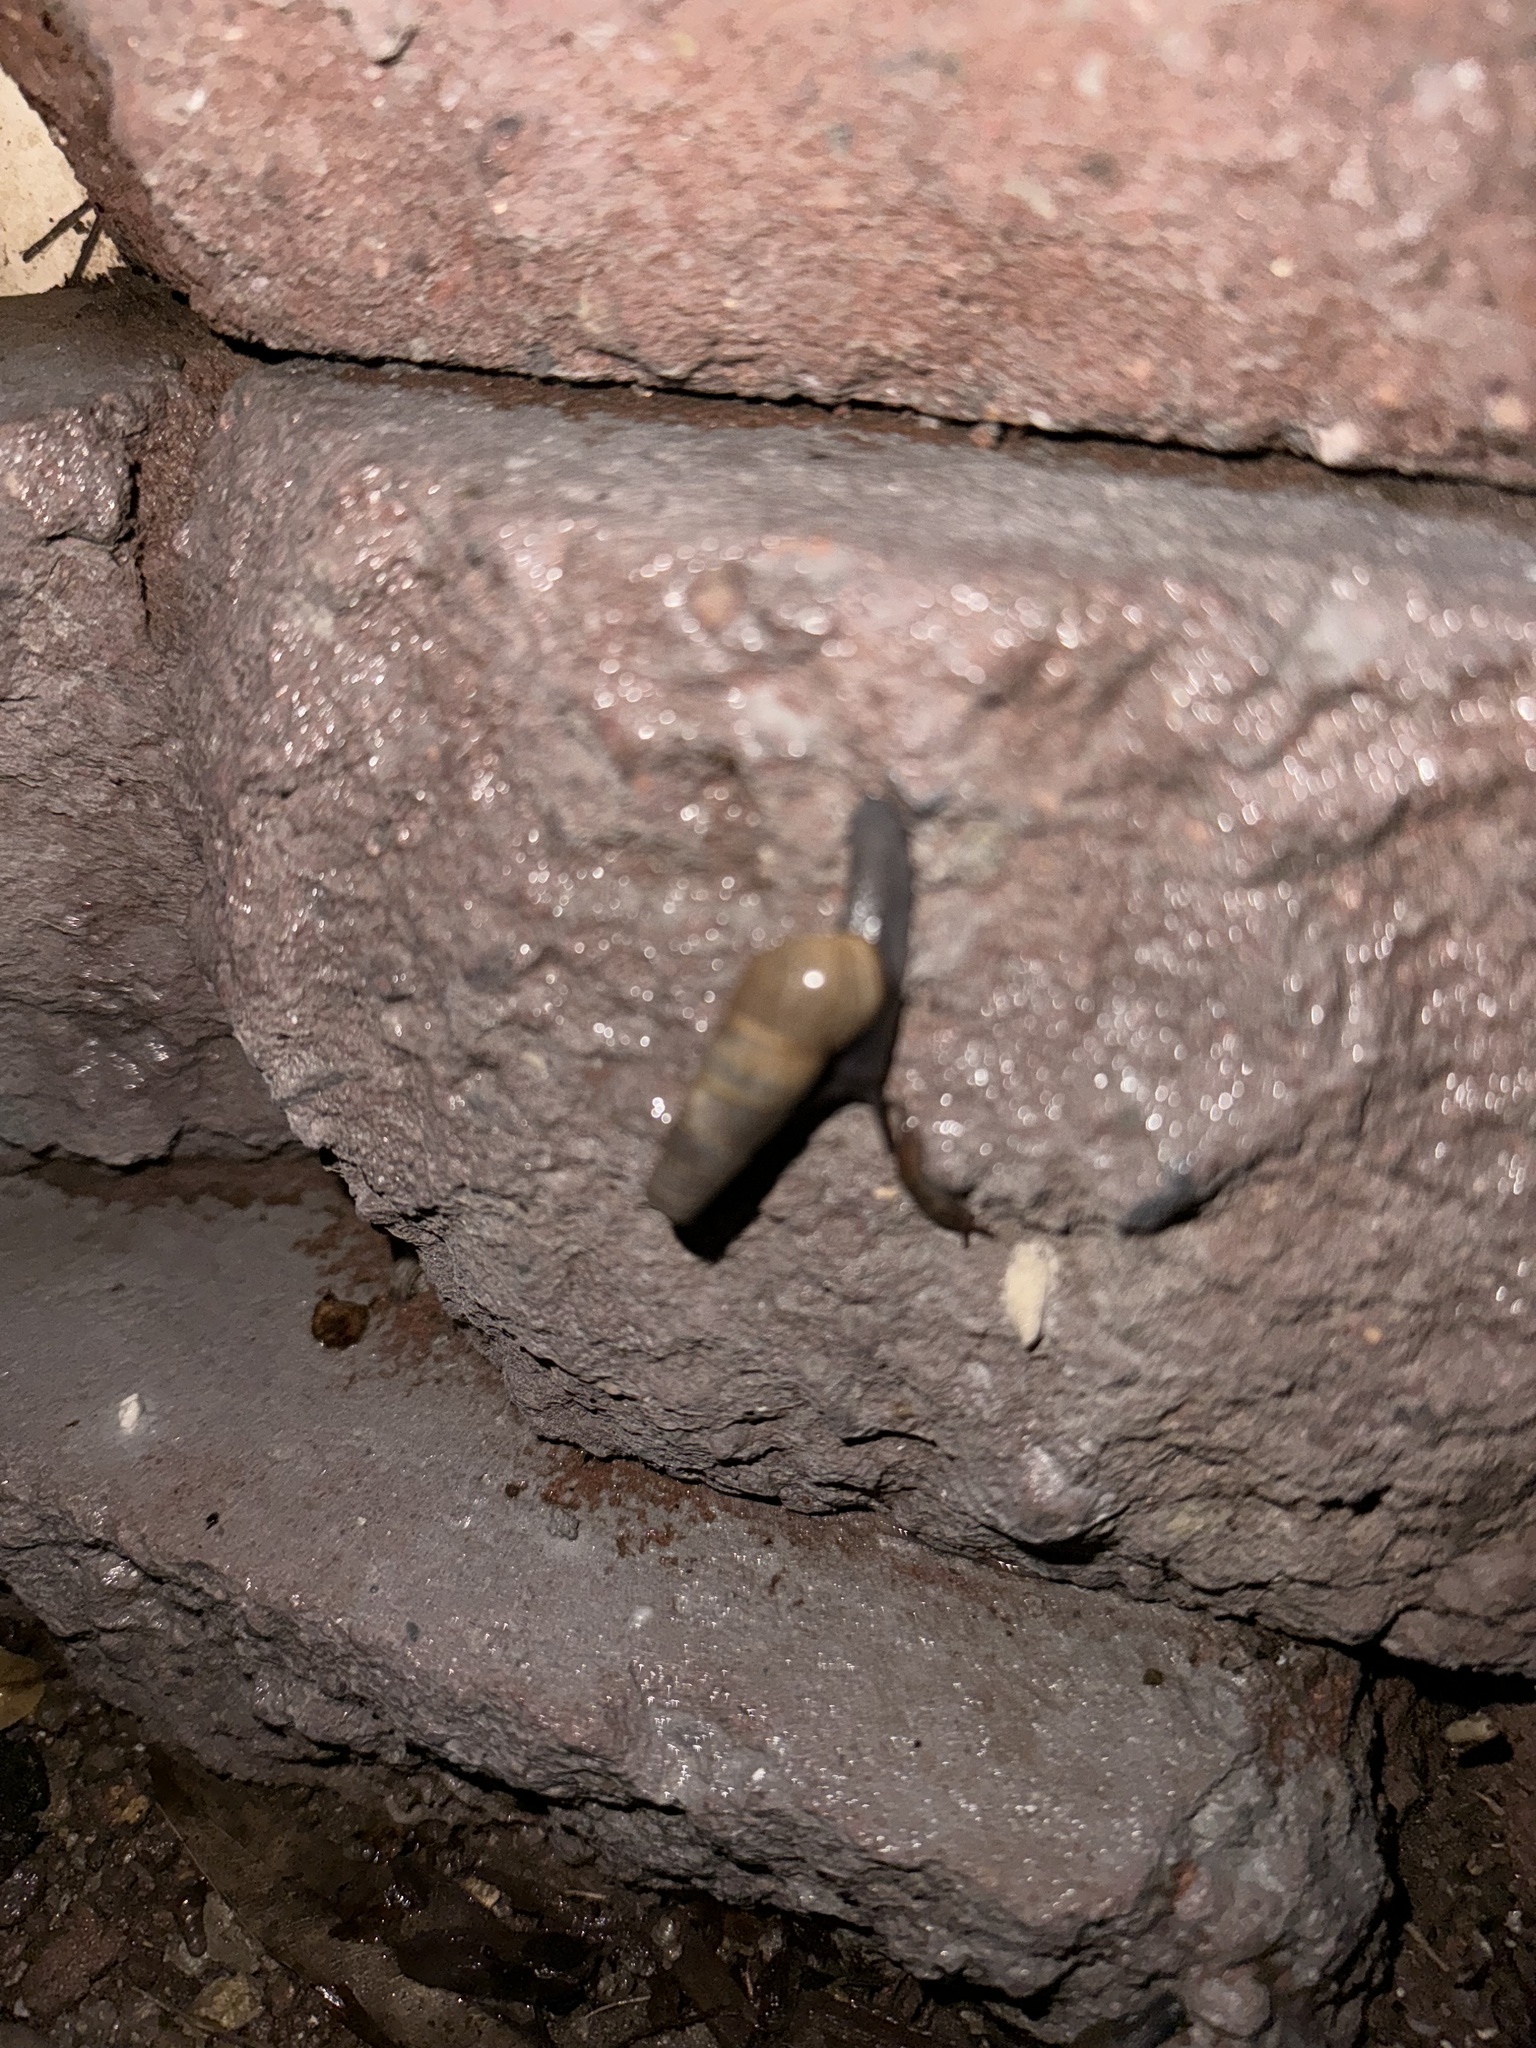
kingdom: Animalia
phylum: Mollusca
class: Gastropoda
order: Stylommatophora
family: Achatinidae
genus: Rumina
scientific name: Rumina decollata
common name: Decollate snail
